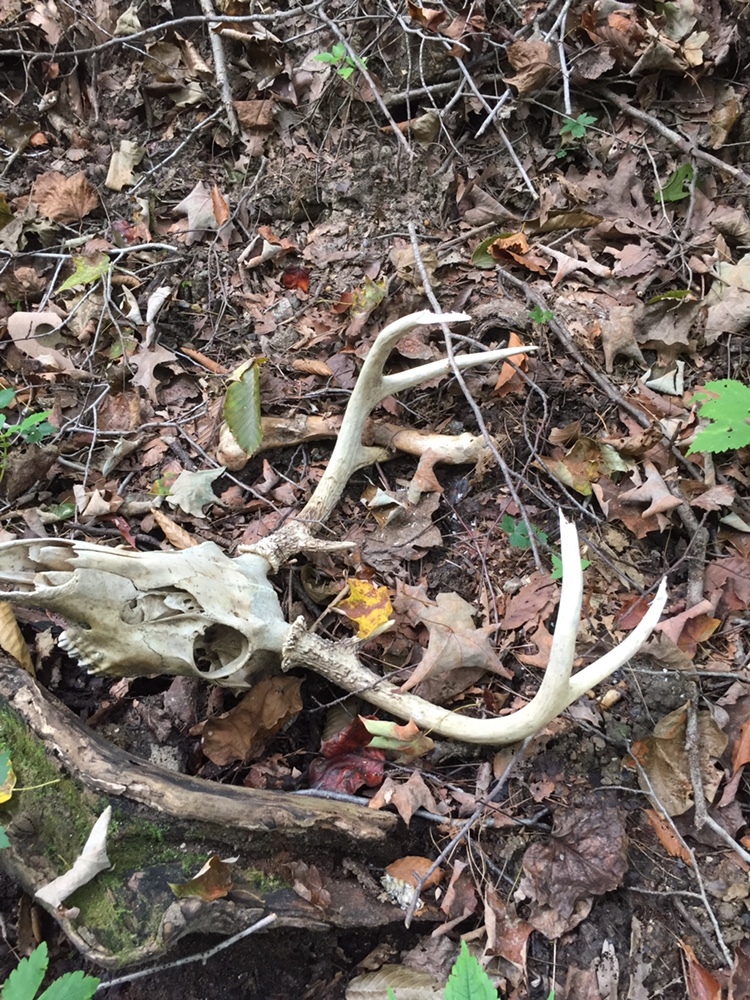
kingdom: Animalia
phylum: Chordata
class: Mammalia
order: Artiodactyla
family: Cervidae
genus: Odocoileus
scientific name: Odocoileus virginianus
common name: White-tailed deer
